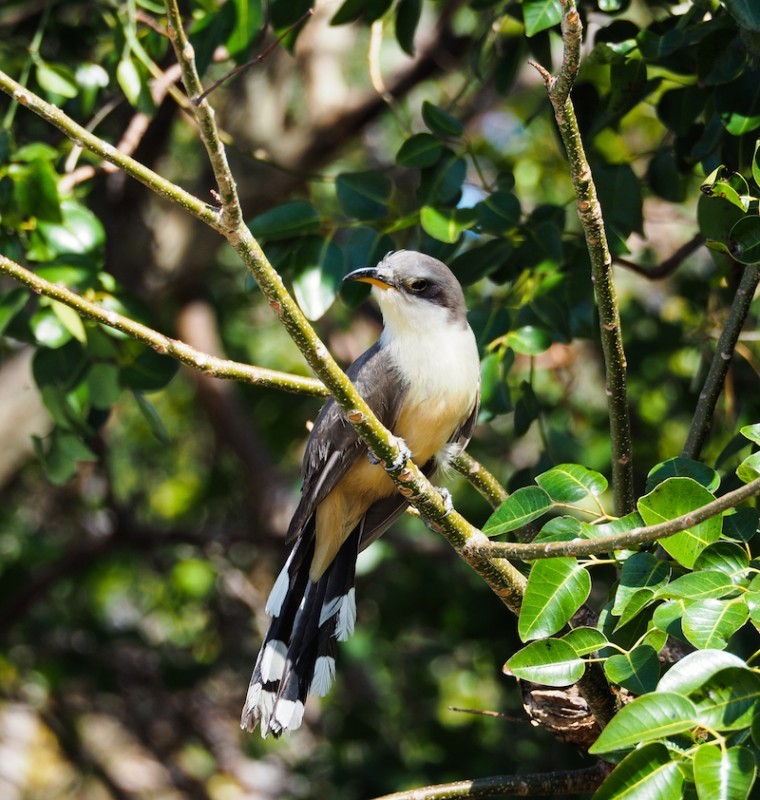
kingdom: Animalia
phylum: Chordata
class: Aves
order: Cuculiformes
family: Cuculidae
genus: Coccyzus
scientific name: Coccyzus minor
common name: Mangrove cuckoo
